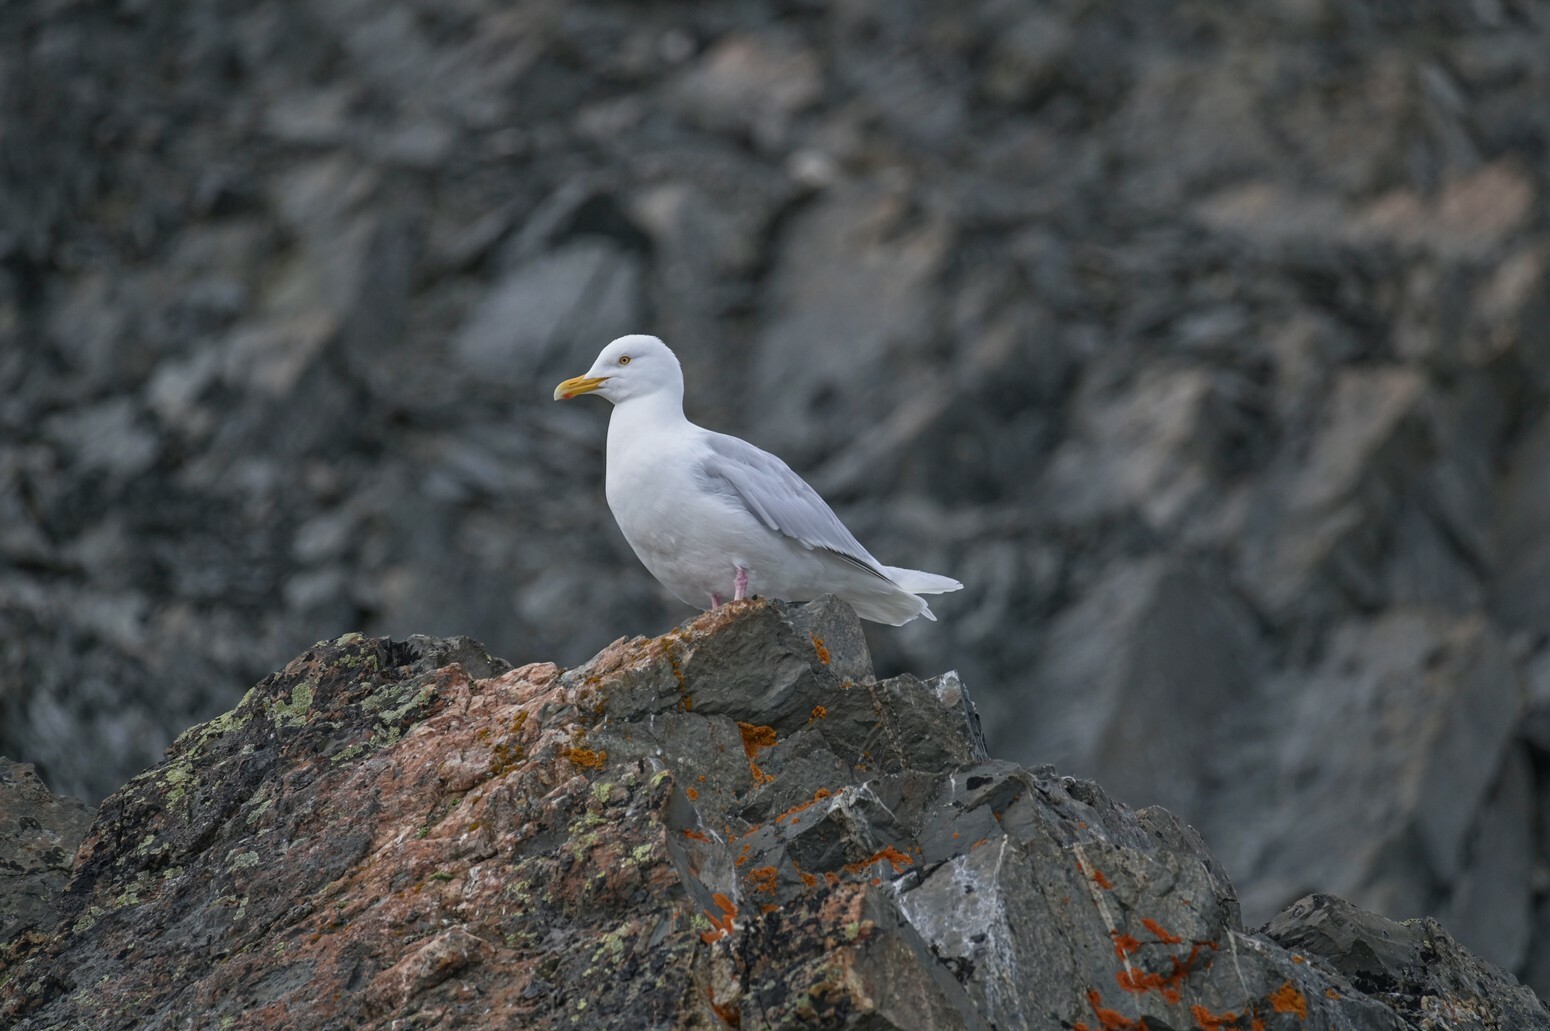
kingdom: Animalia
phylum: Chordata
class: Aves
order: Charadriiformes
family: Laridae
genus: Larus
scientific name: Larus hyperboreus
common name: Glaucous gull
